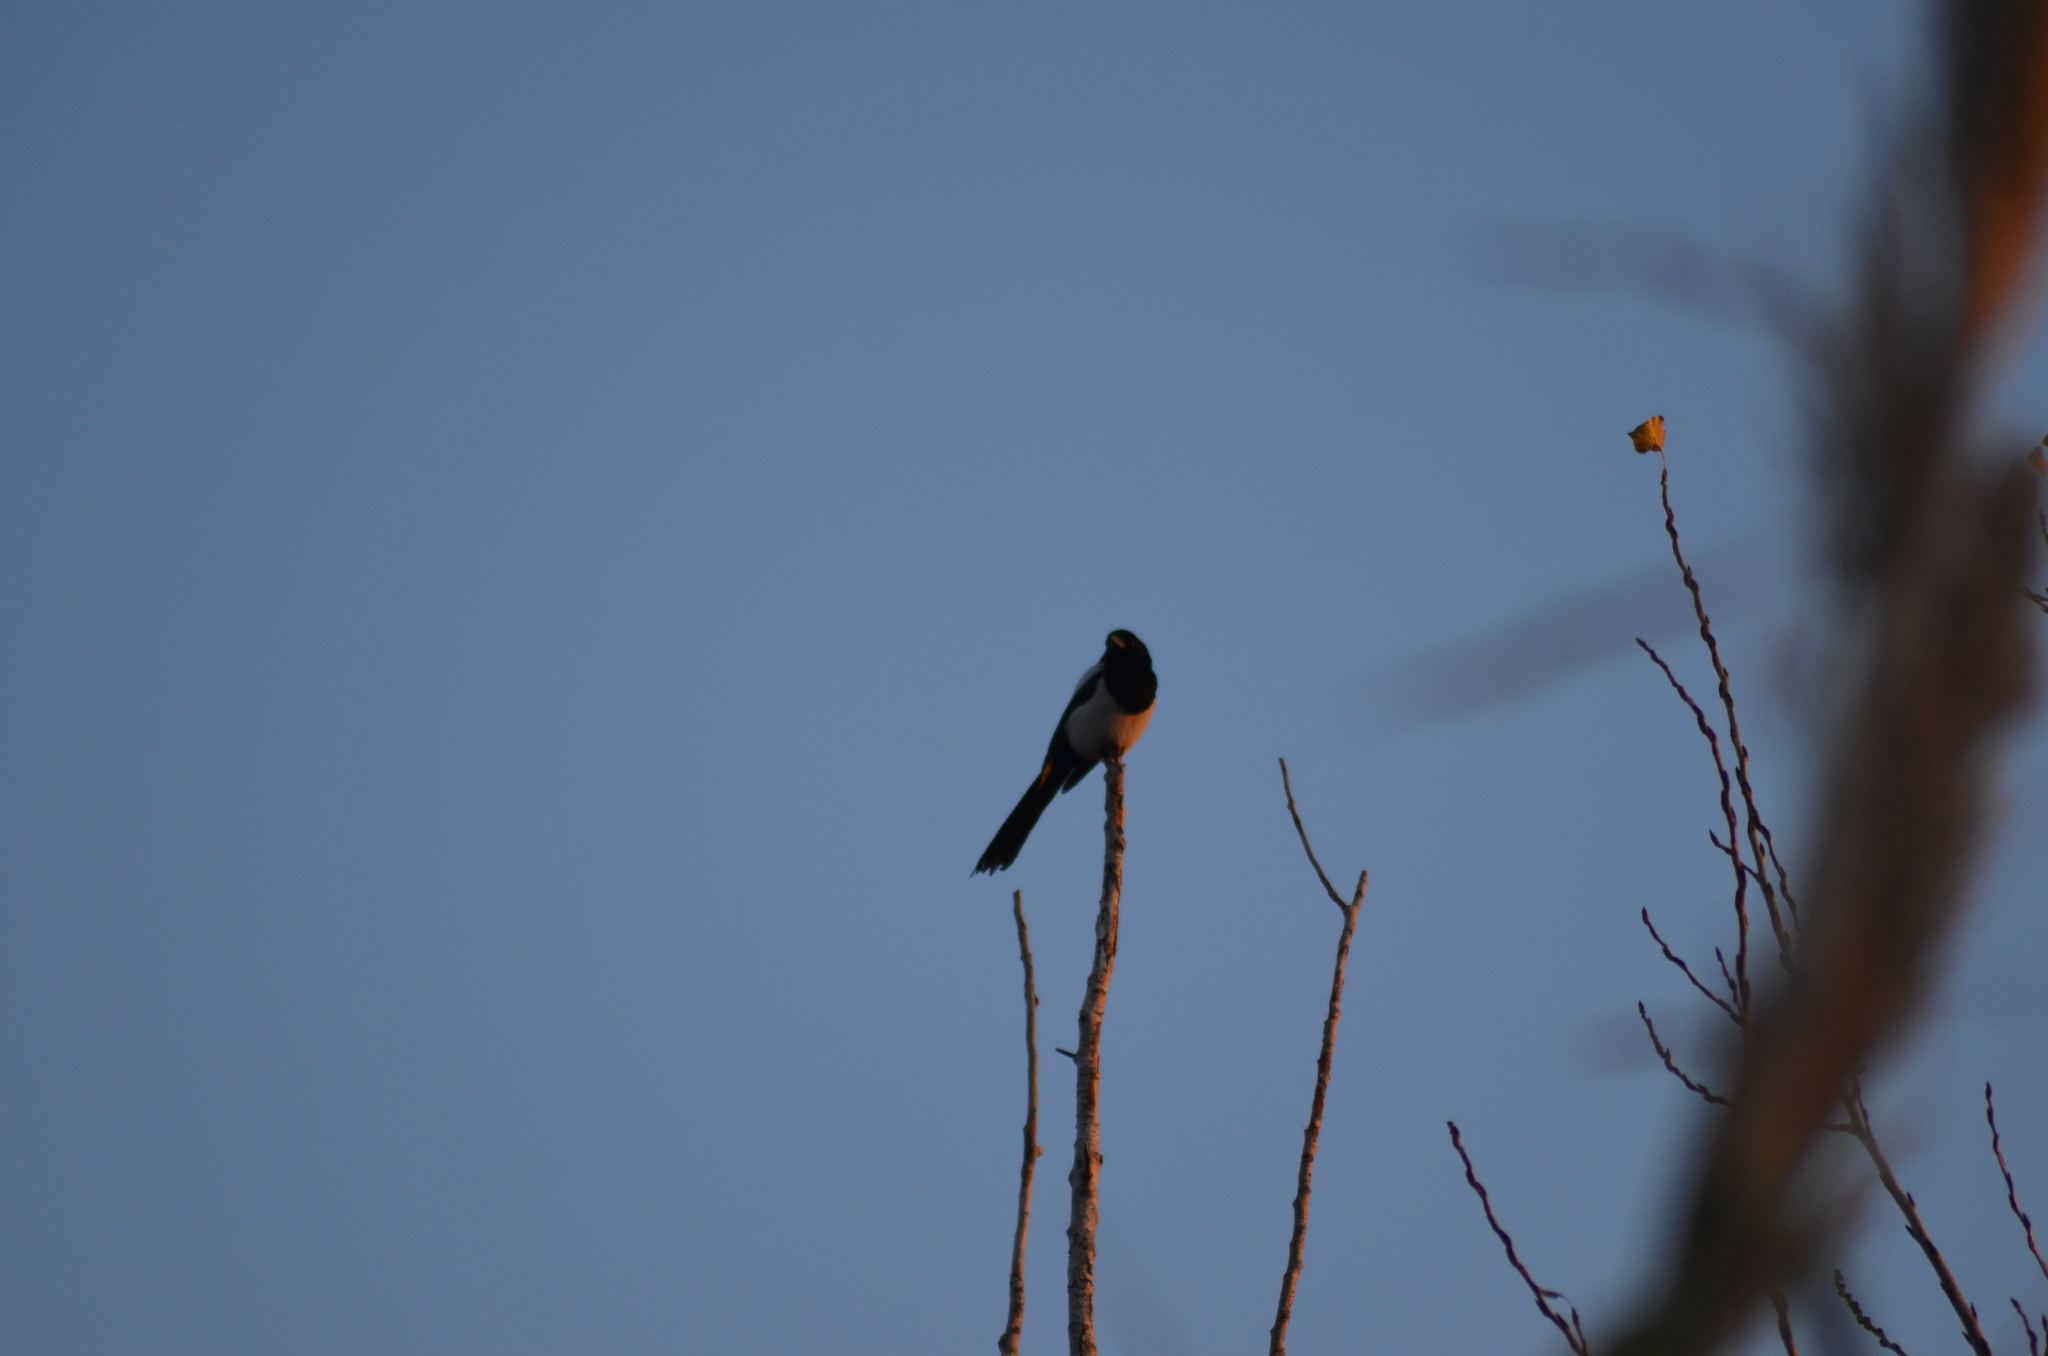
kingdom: Animalia
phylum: Chordata
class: Aves
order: Passeriformes
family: Corvidae
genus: Pica
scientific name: Pica pica
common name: Eurasian magpie
